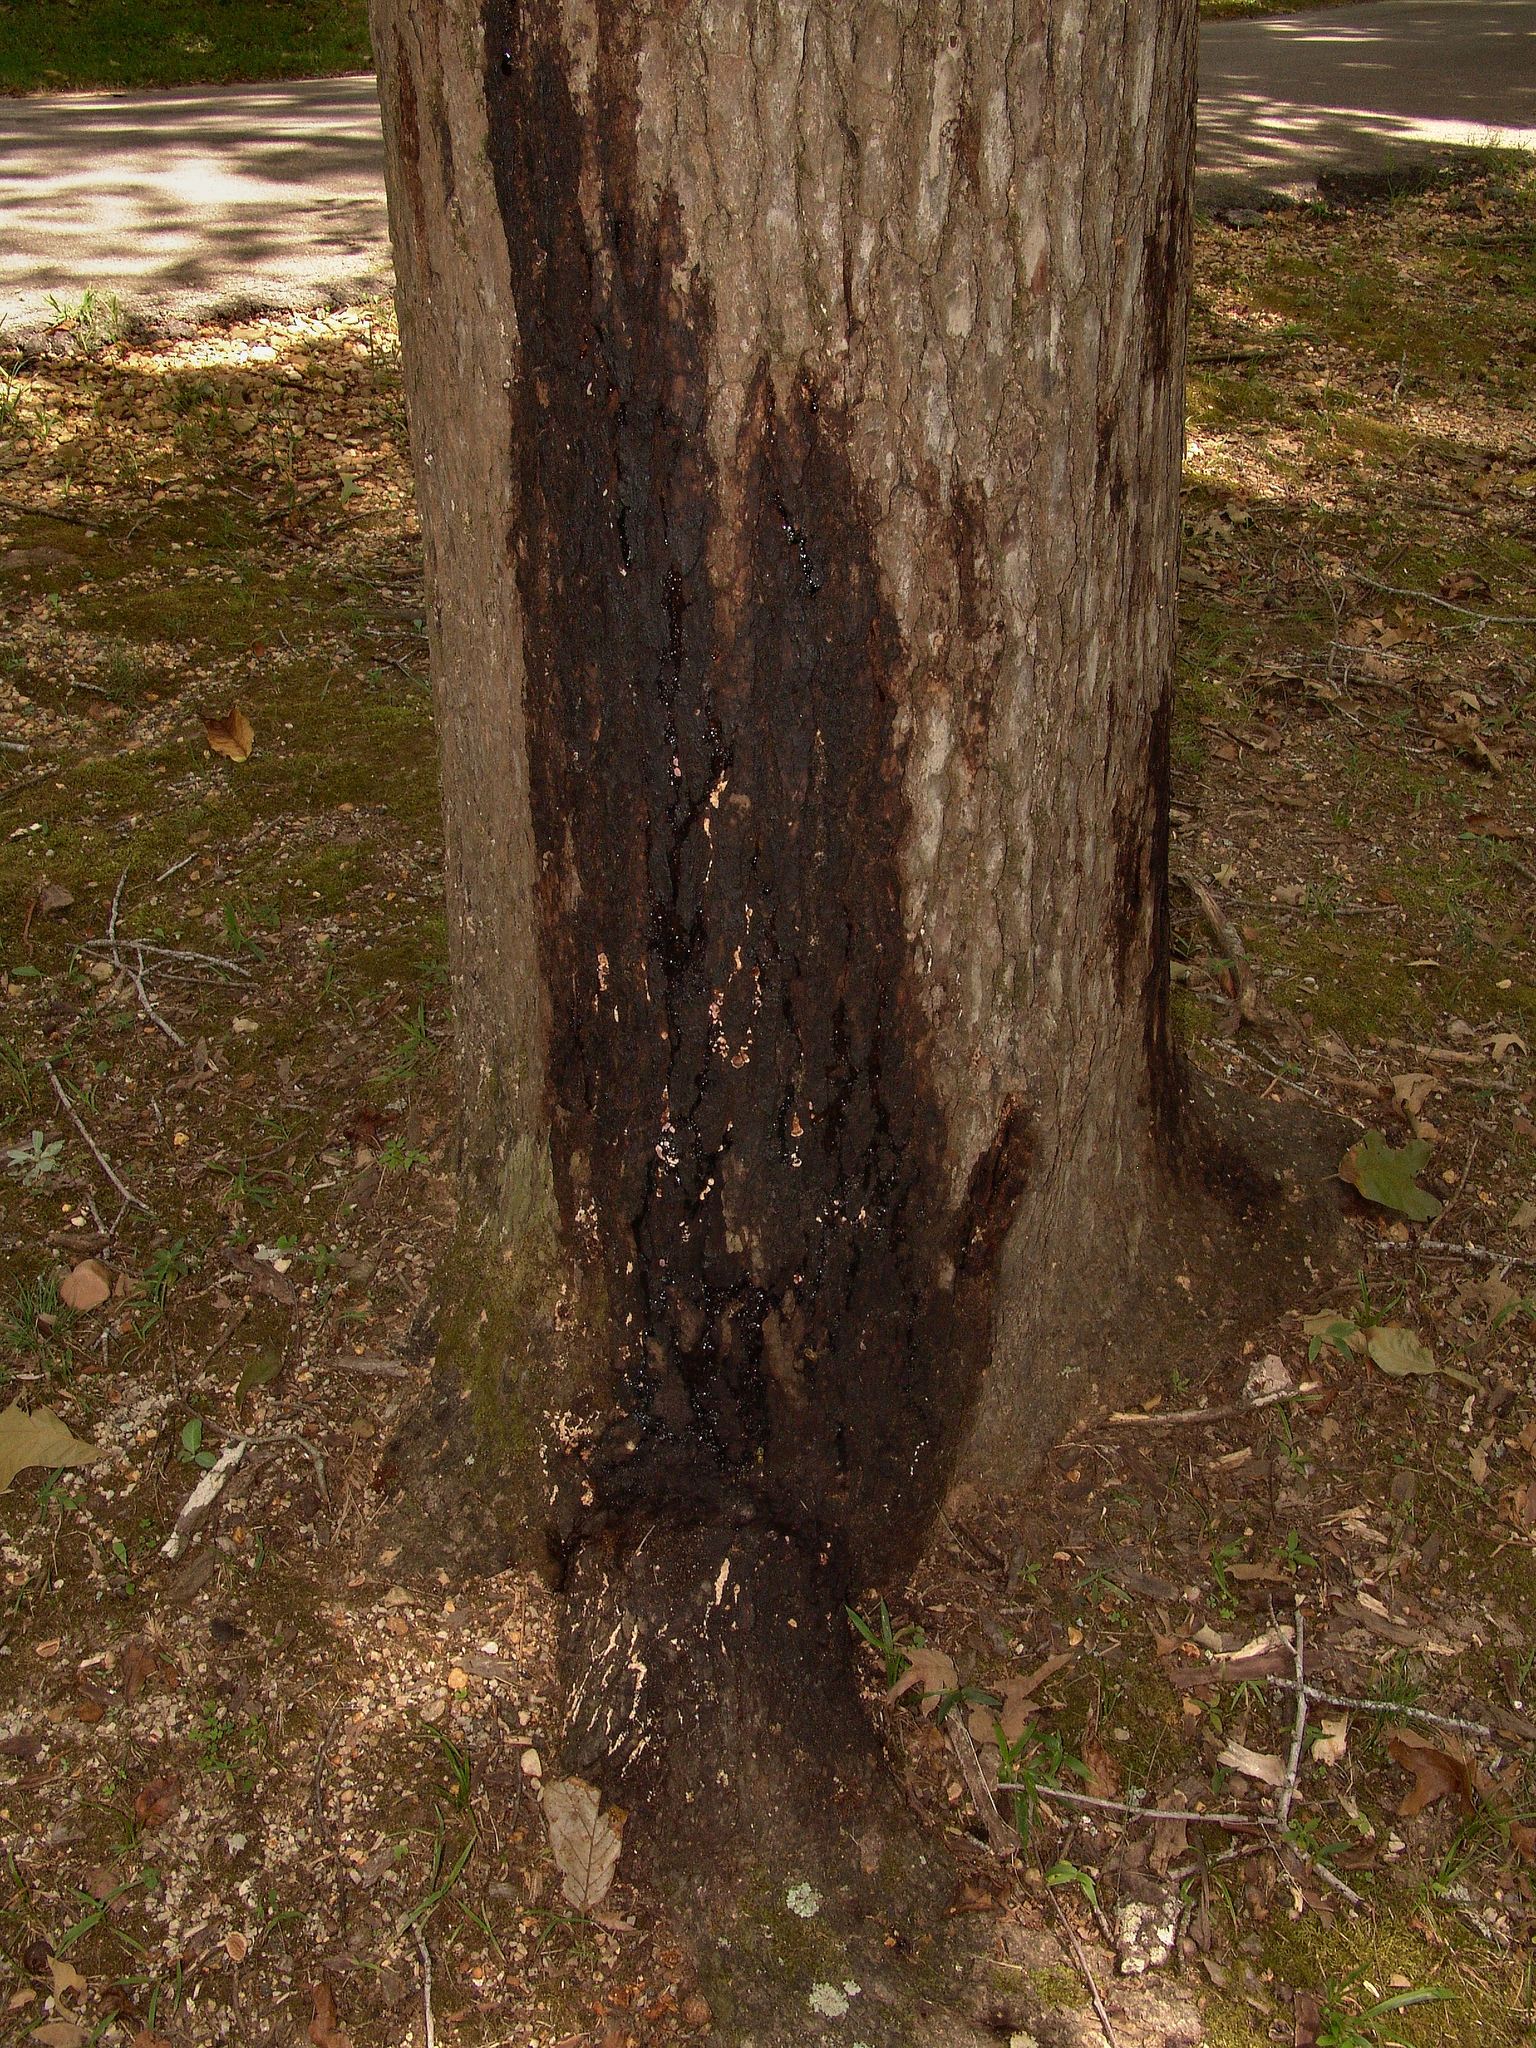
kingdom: Animalia
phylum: Arthropoda
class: Insecta
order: Hymenoptera
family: Vespidae
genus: Vespula
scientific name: Vespula maculifrons
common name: Eastern yellowjacket
